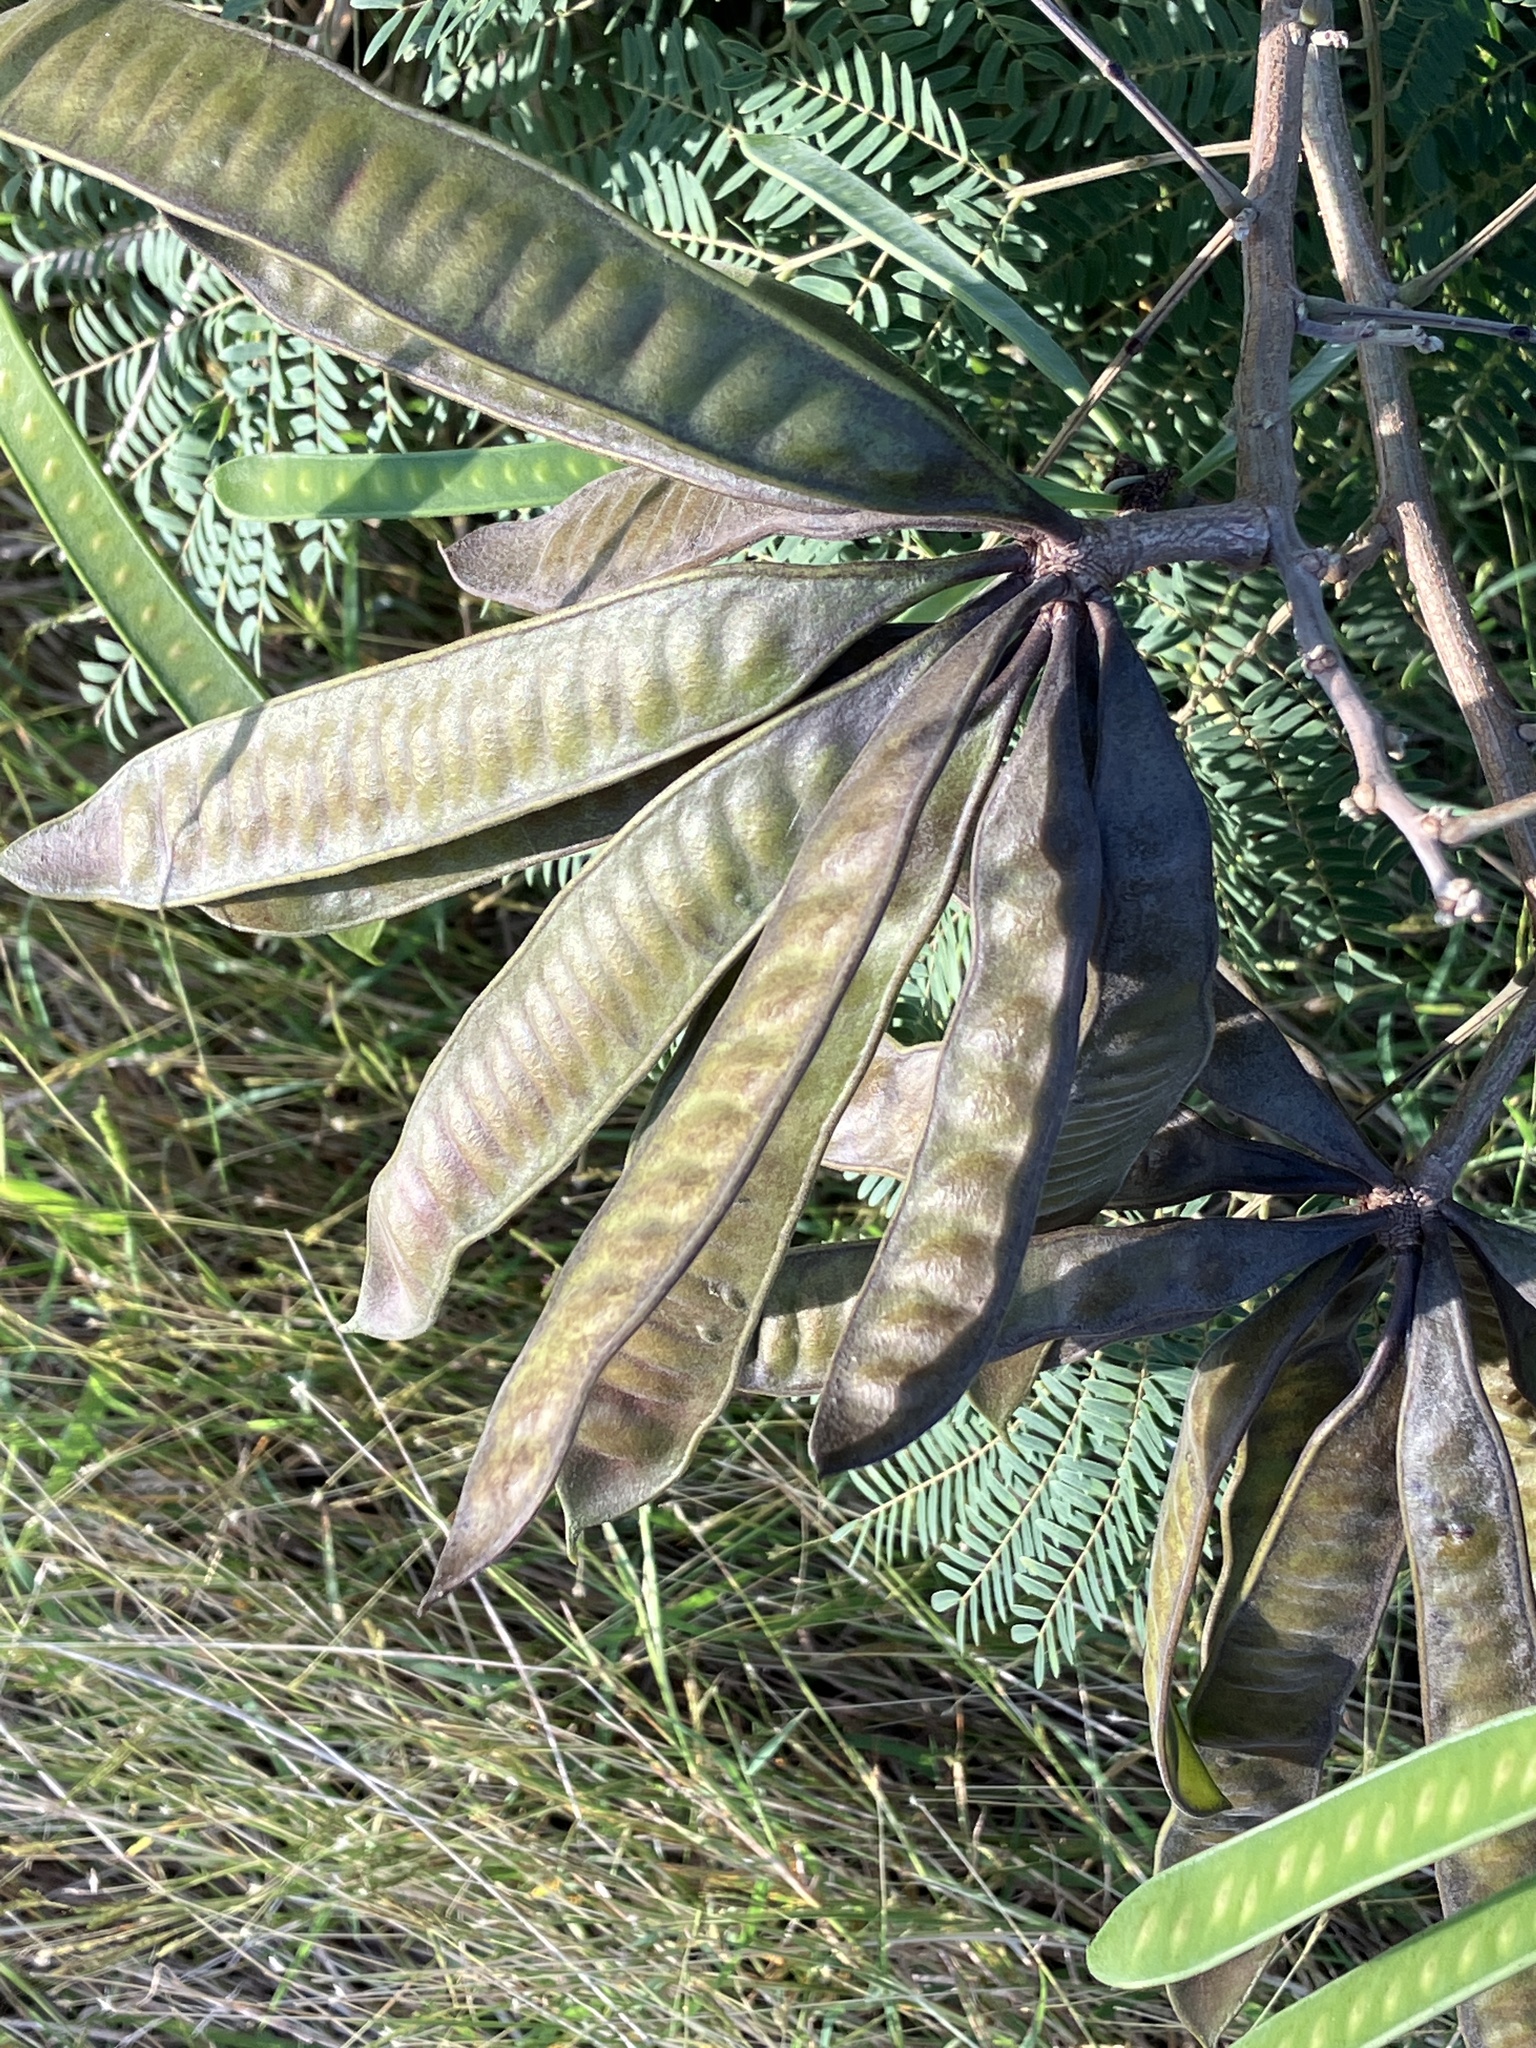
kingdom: Plantae
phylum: Tracheophyta
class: Magnoliopsida
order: Fabales
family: Fabaceae
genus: Leucaena
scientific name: Leucaena leucocephala
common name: White leadtree
